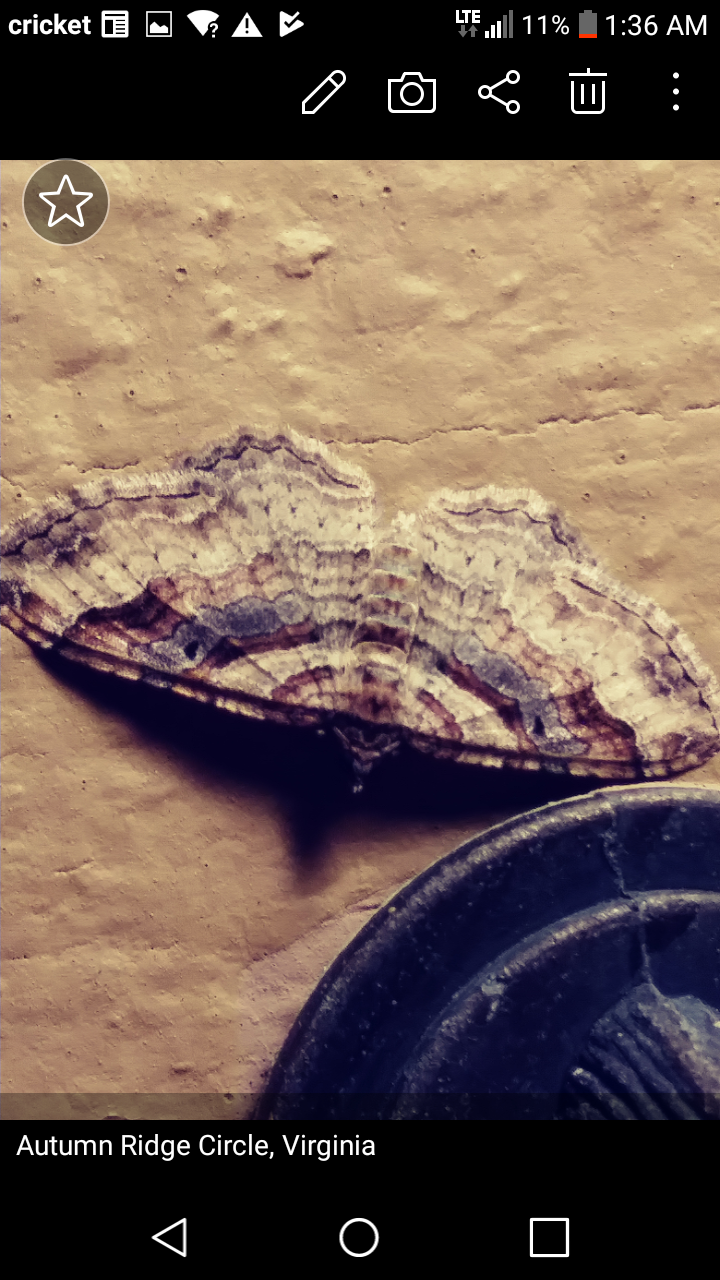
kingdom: Animalia
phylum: Arthropoda
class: Insecta
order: Lepidoptera
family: Geometridae
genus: Costaconvexa
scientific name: Costaconvexa centrostrigaria
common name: Bent-line carpet
